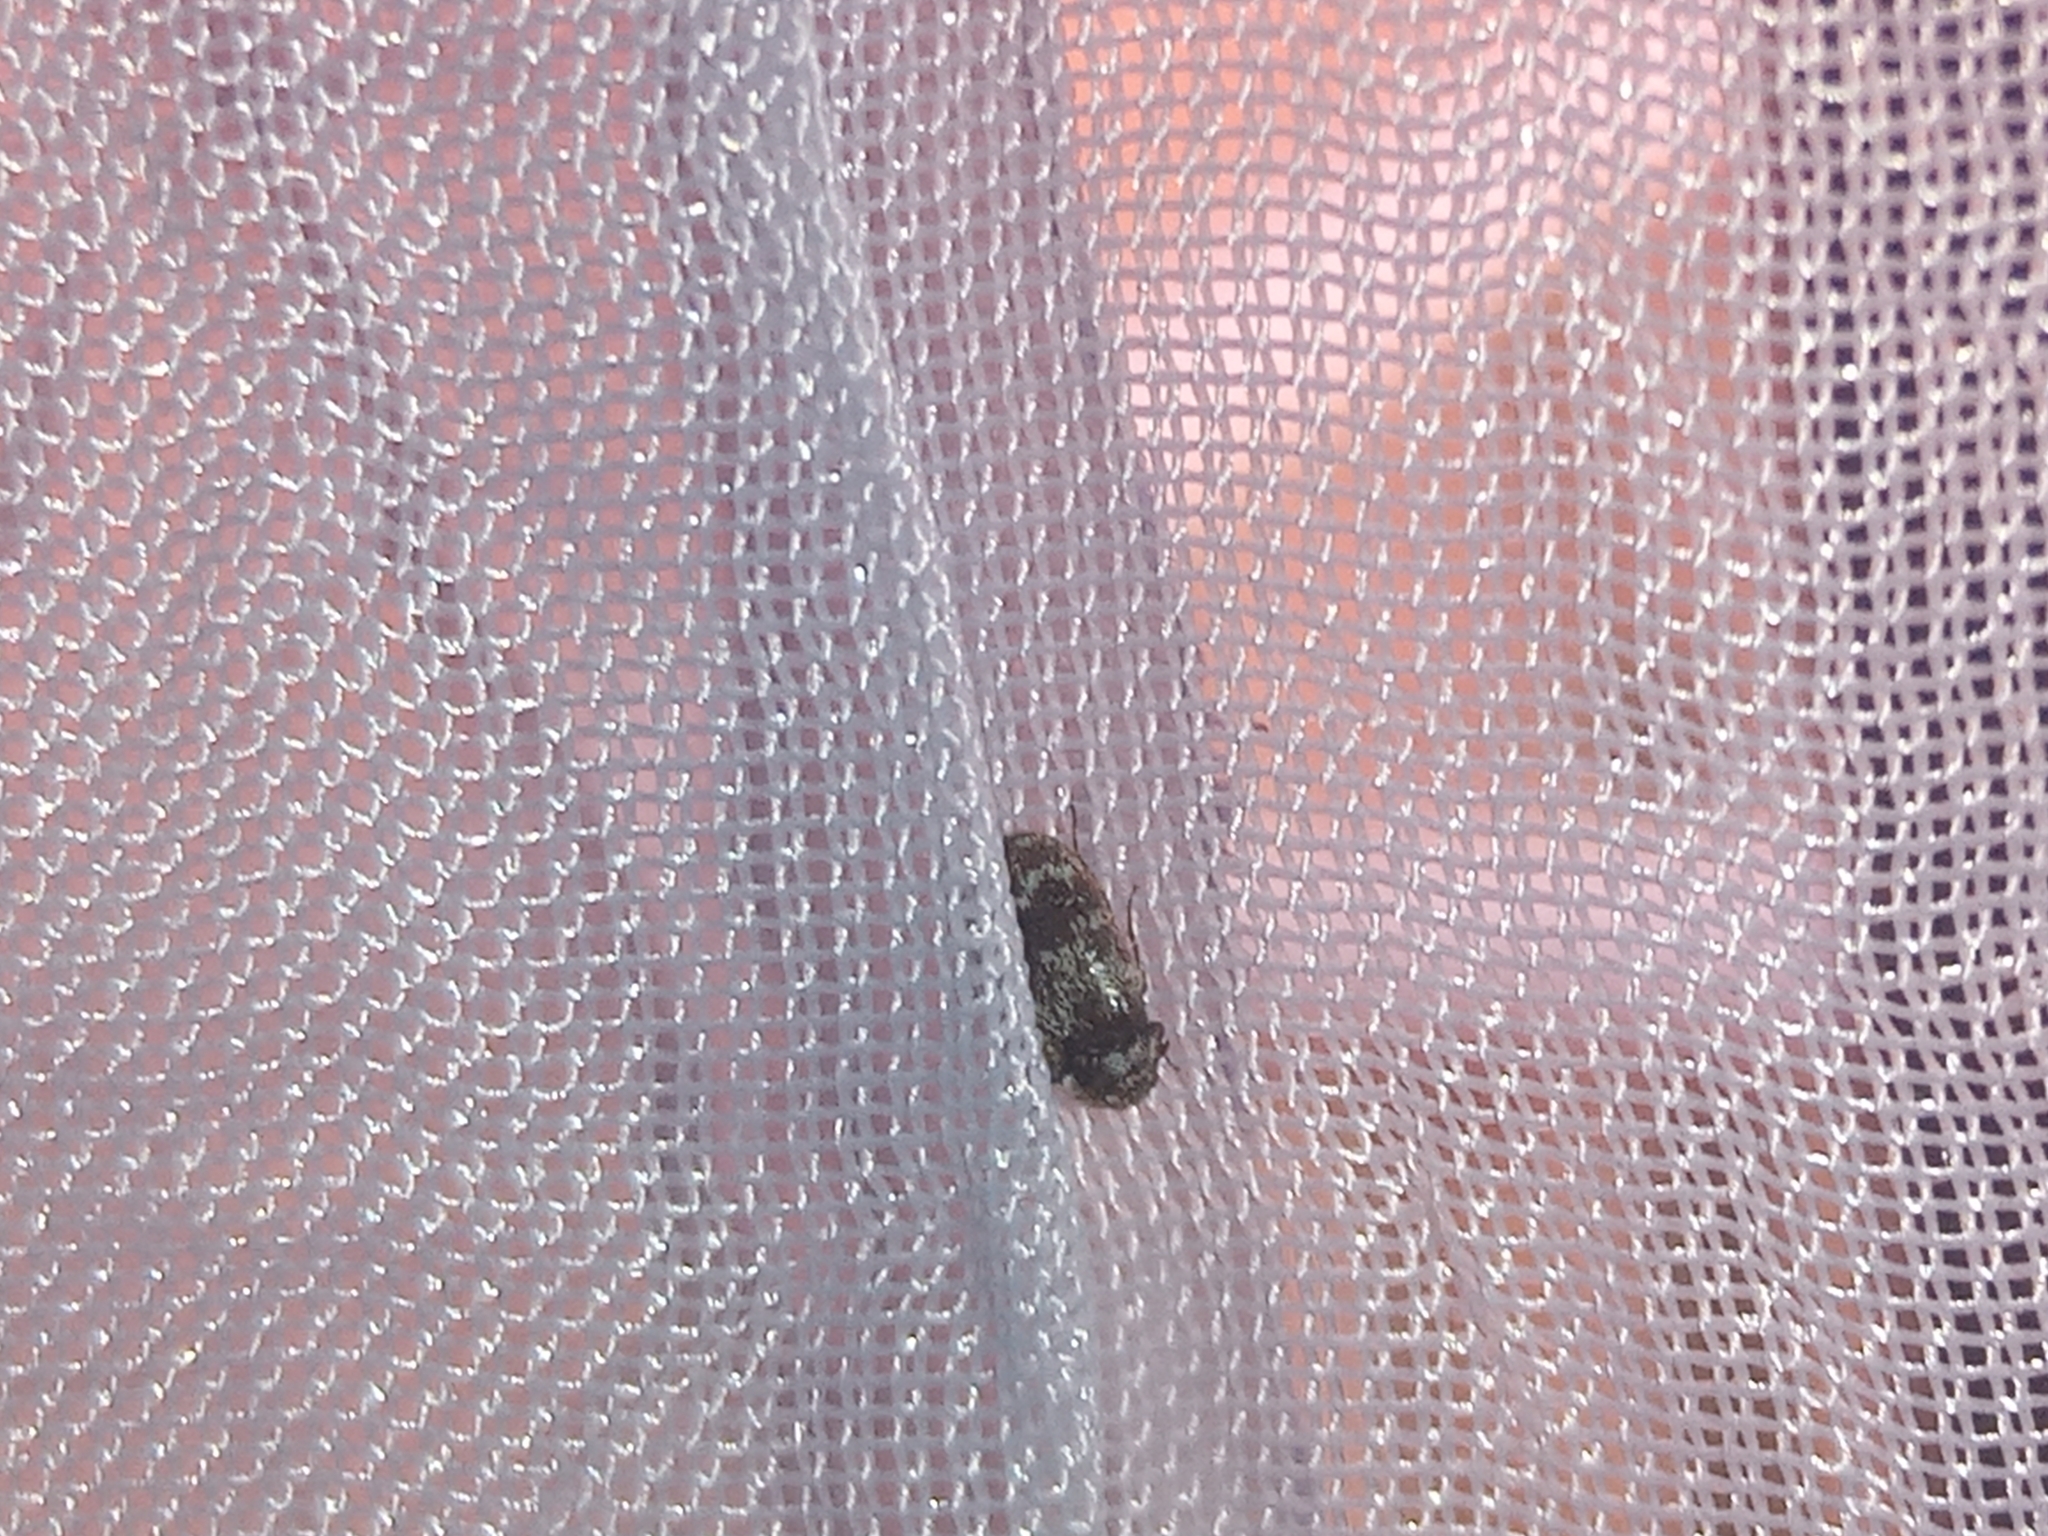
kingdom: Animalia
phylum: Arthropoda
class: Insecta
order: Coleoptera
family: Dermestidae
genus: Trogoderma
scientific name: Trogoderma sternale
